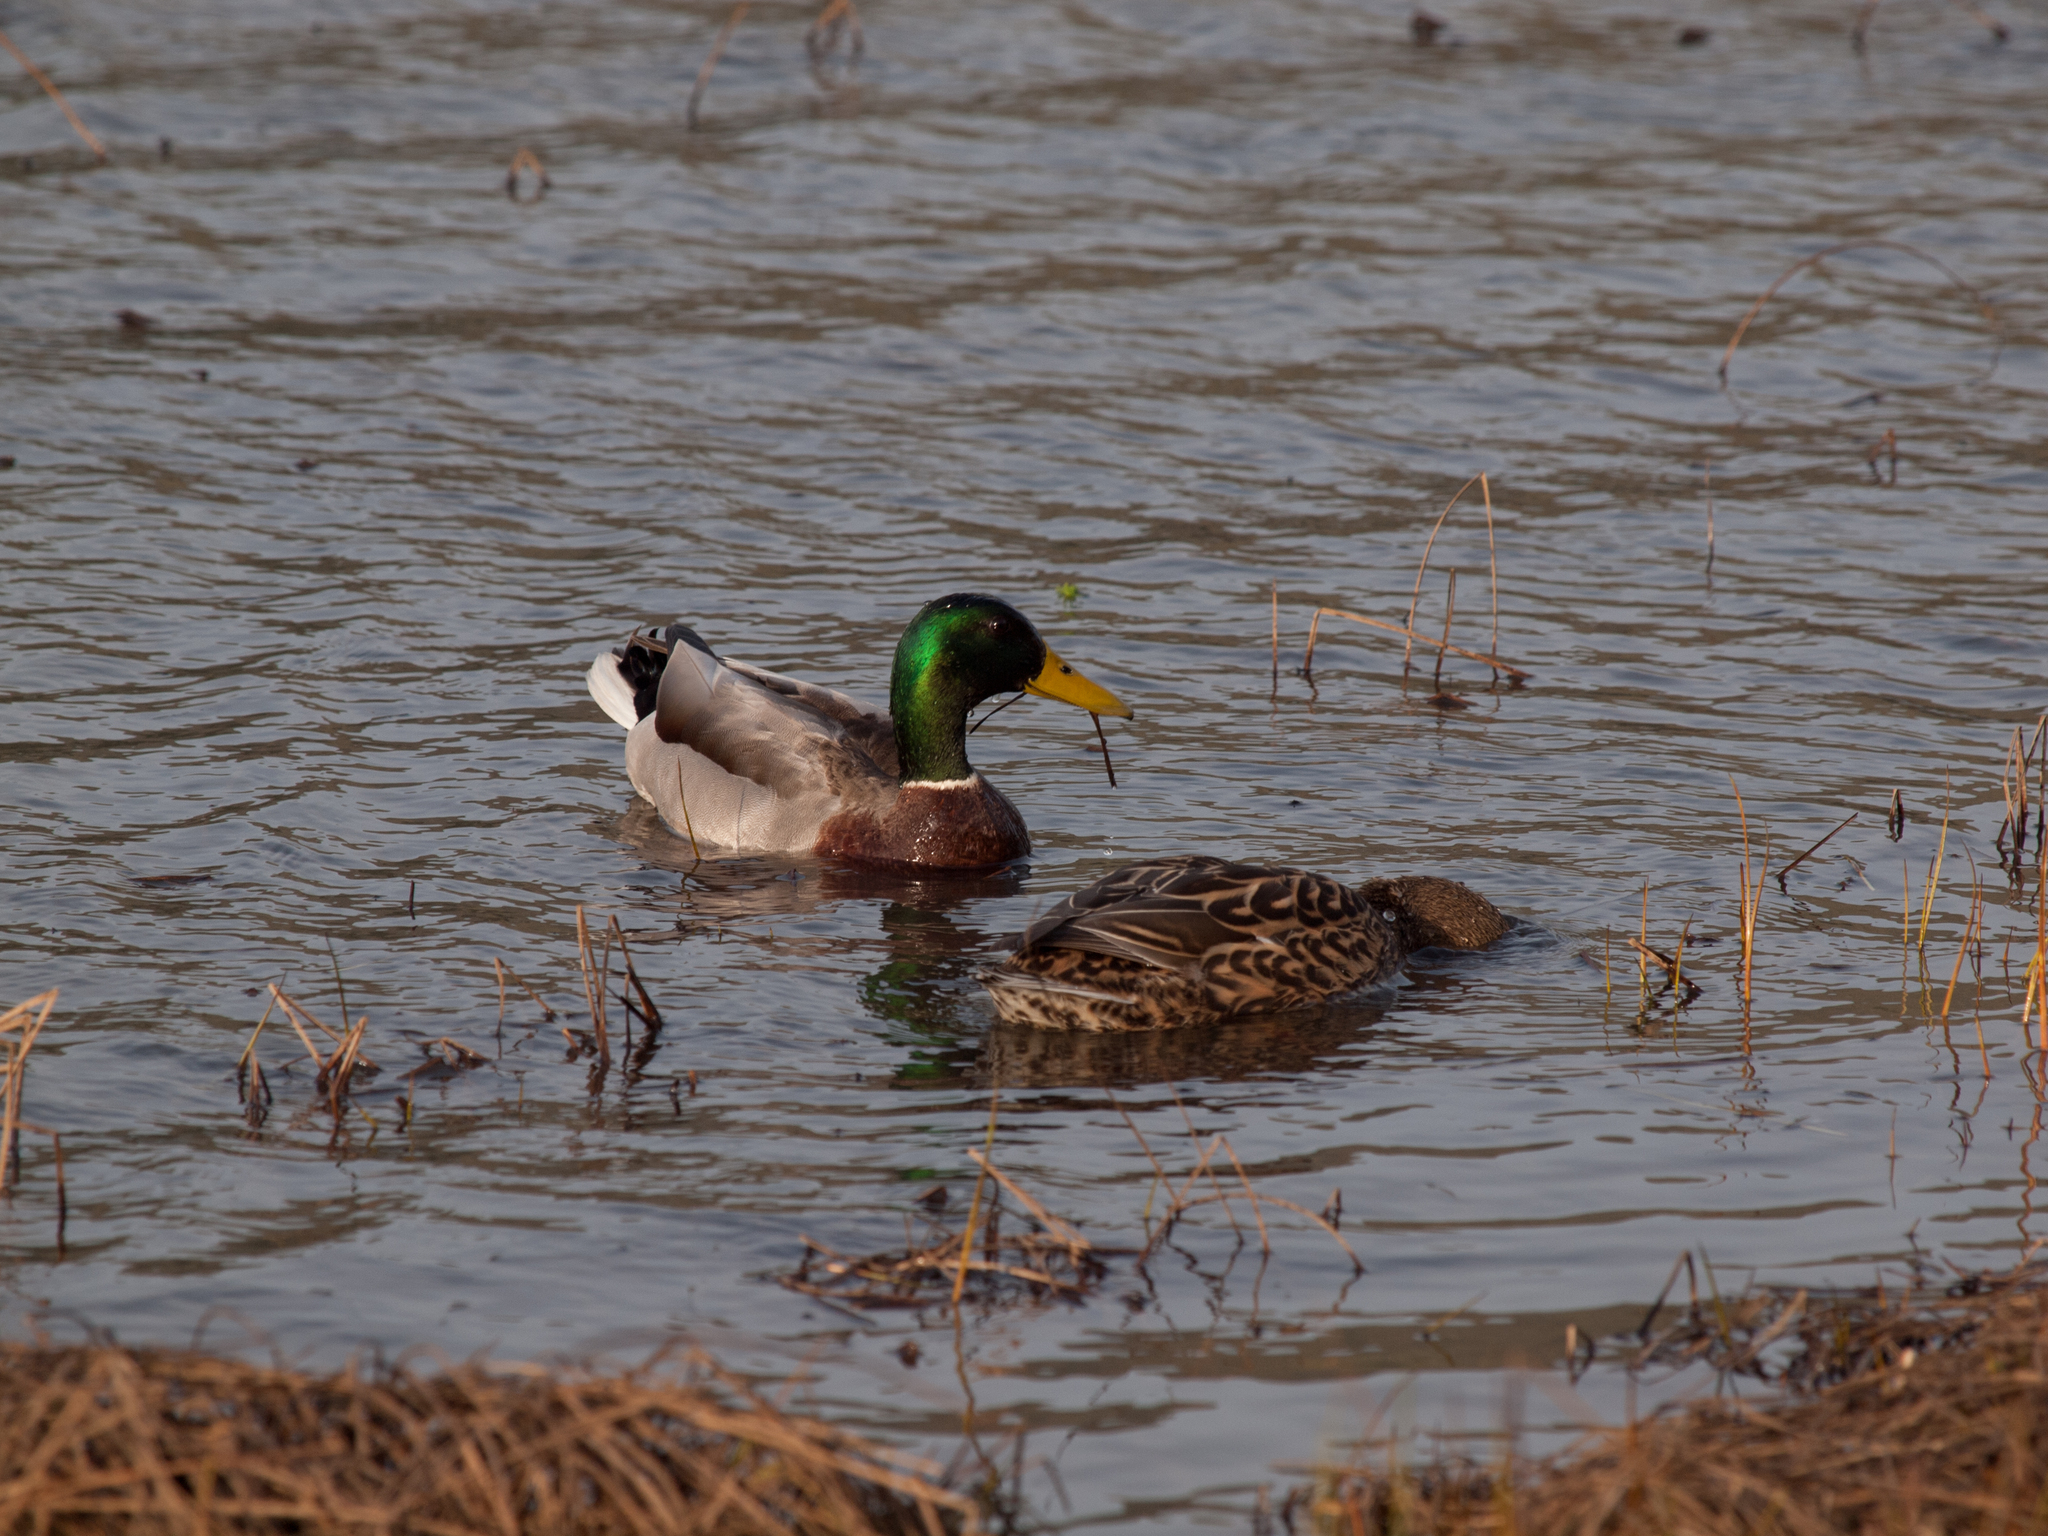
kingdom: Animalia
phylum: Chordata
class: Aves
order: Anseriformes
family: Anatidae
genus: Anas
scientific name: Anas platyrhynchos
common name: Mallard
